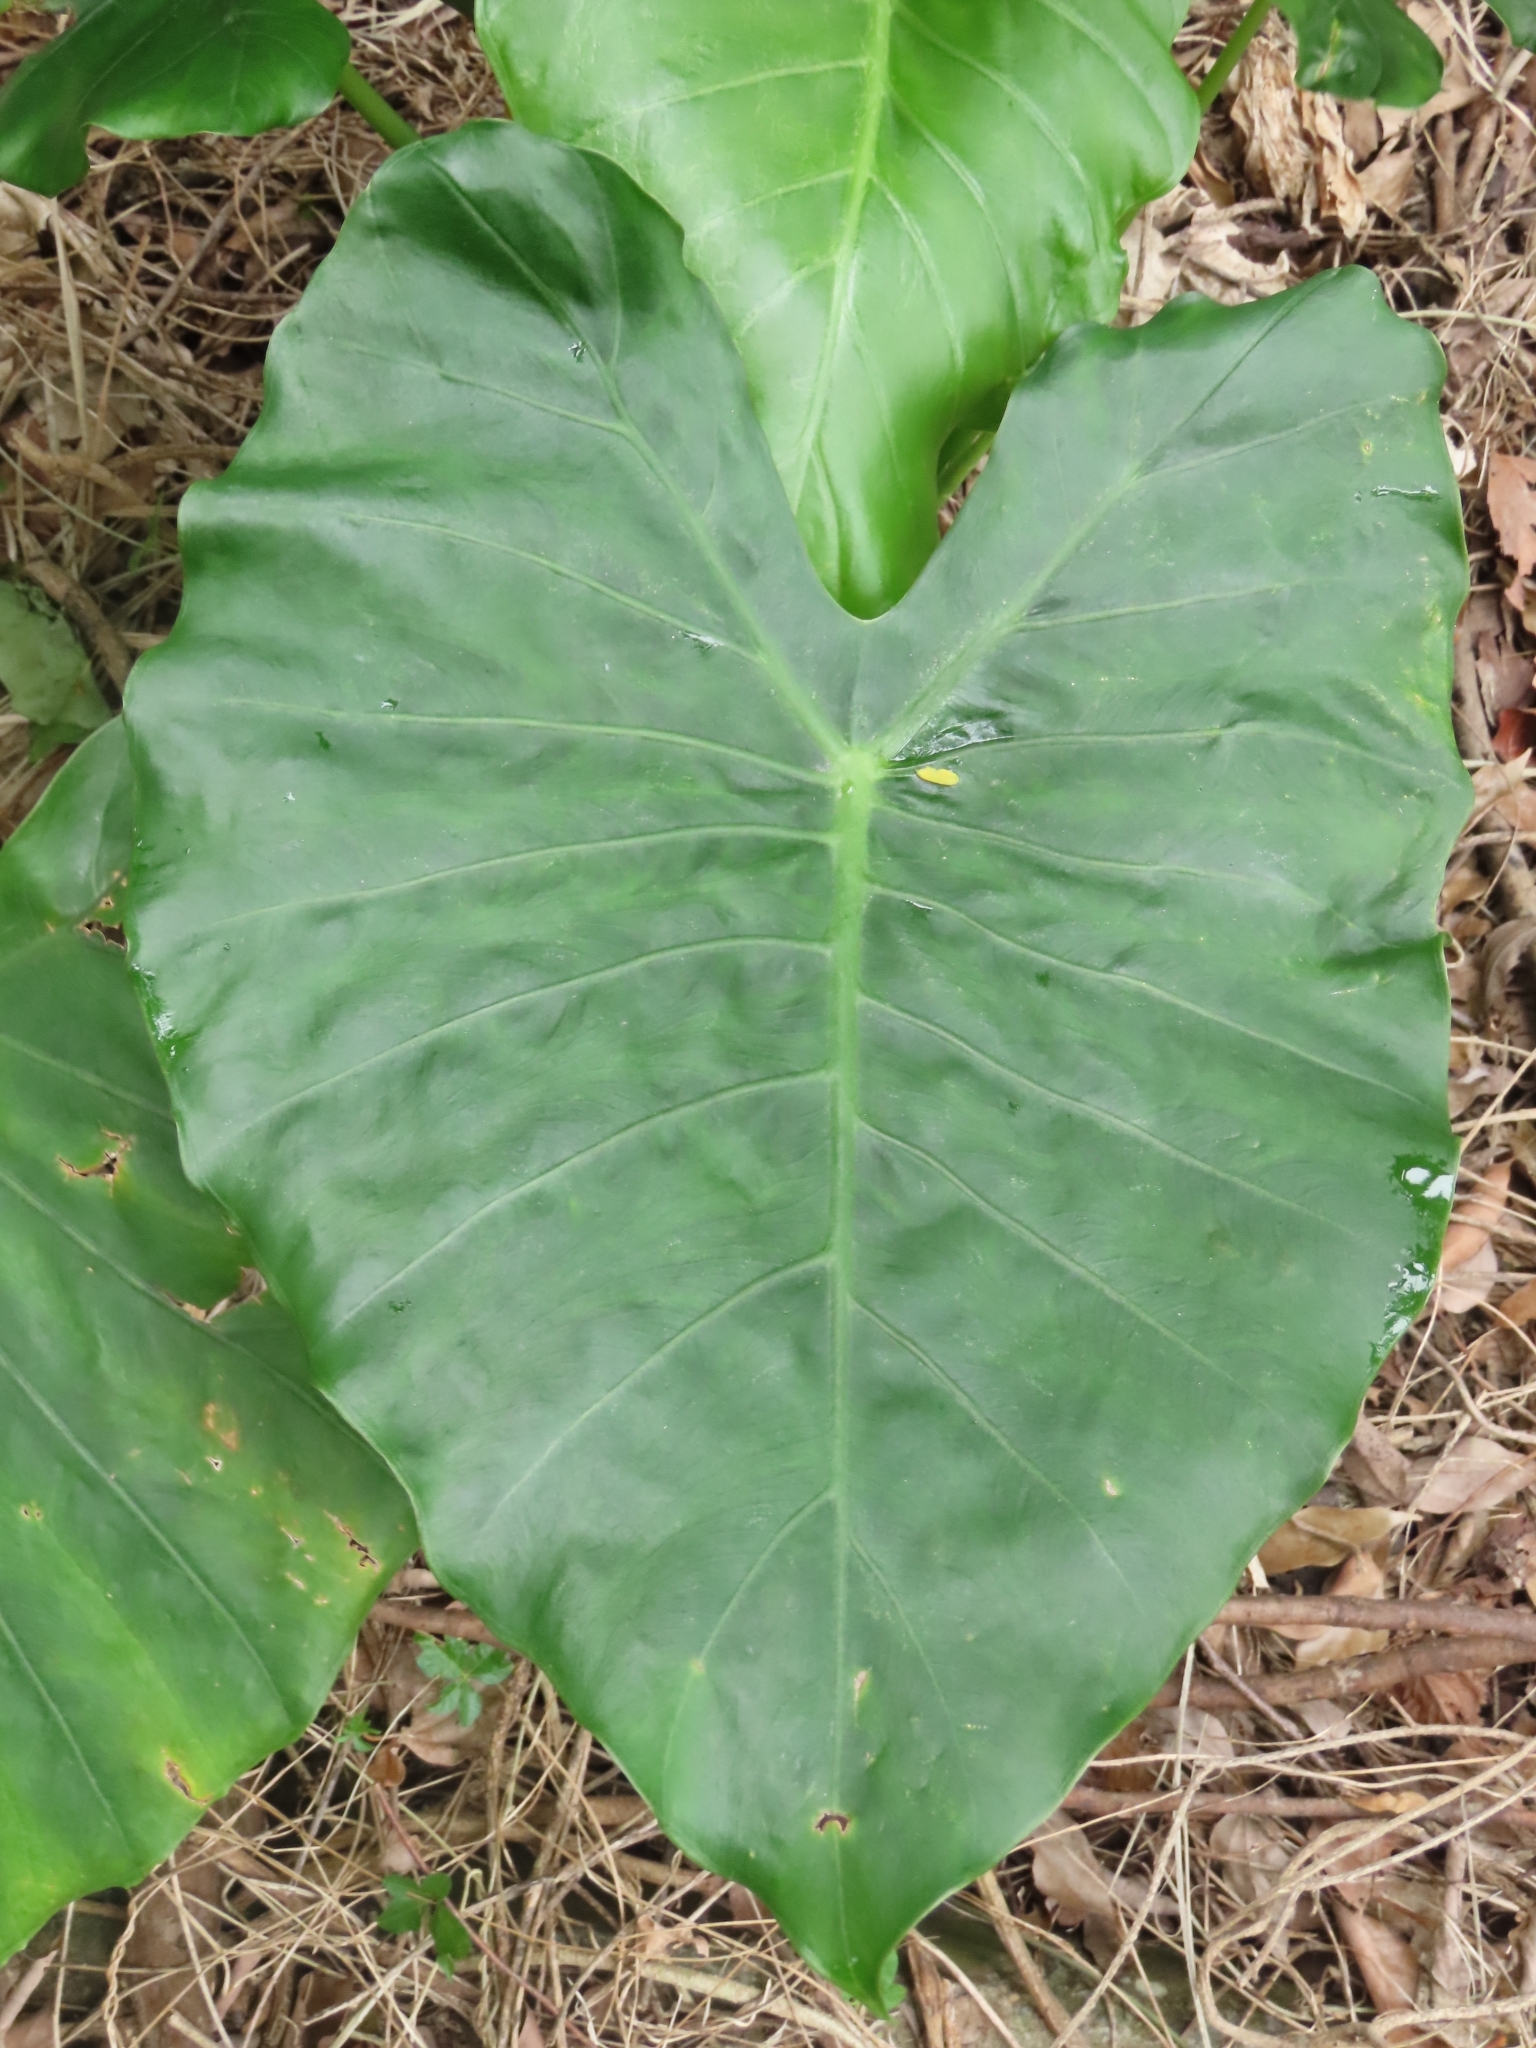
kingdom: Plantae
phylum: Tracheophyta
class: Liliopsida
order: Alismatales
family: Araceae
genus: Alocasia
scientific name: Alocasia odora
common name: Asian taro
